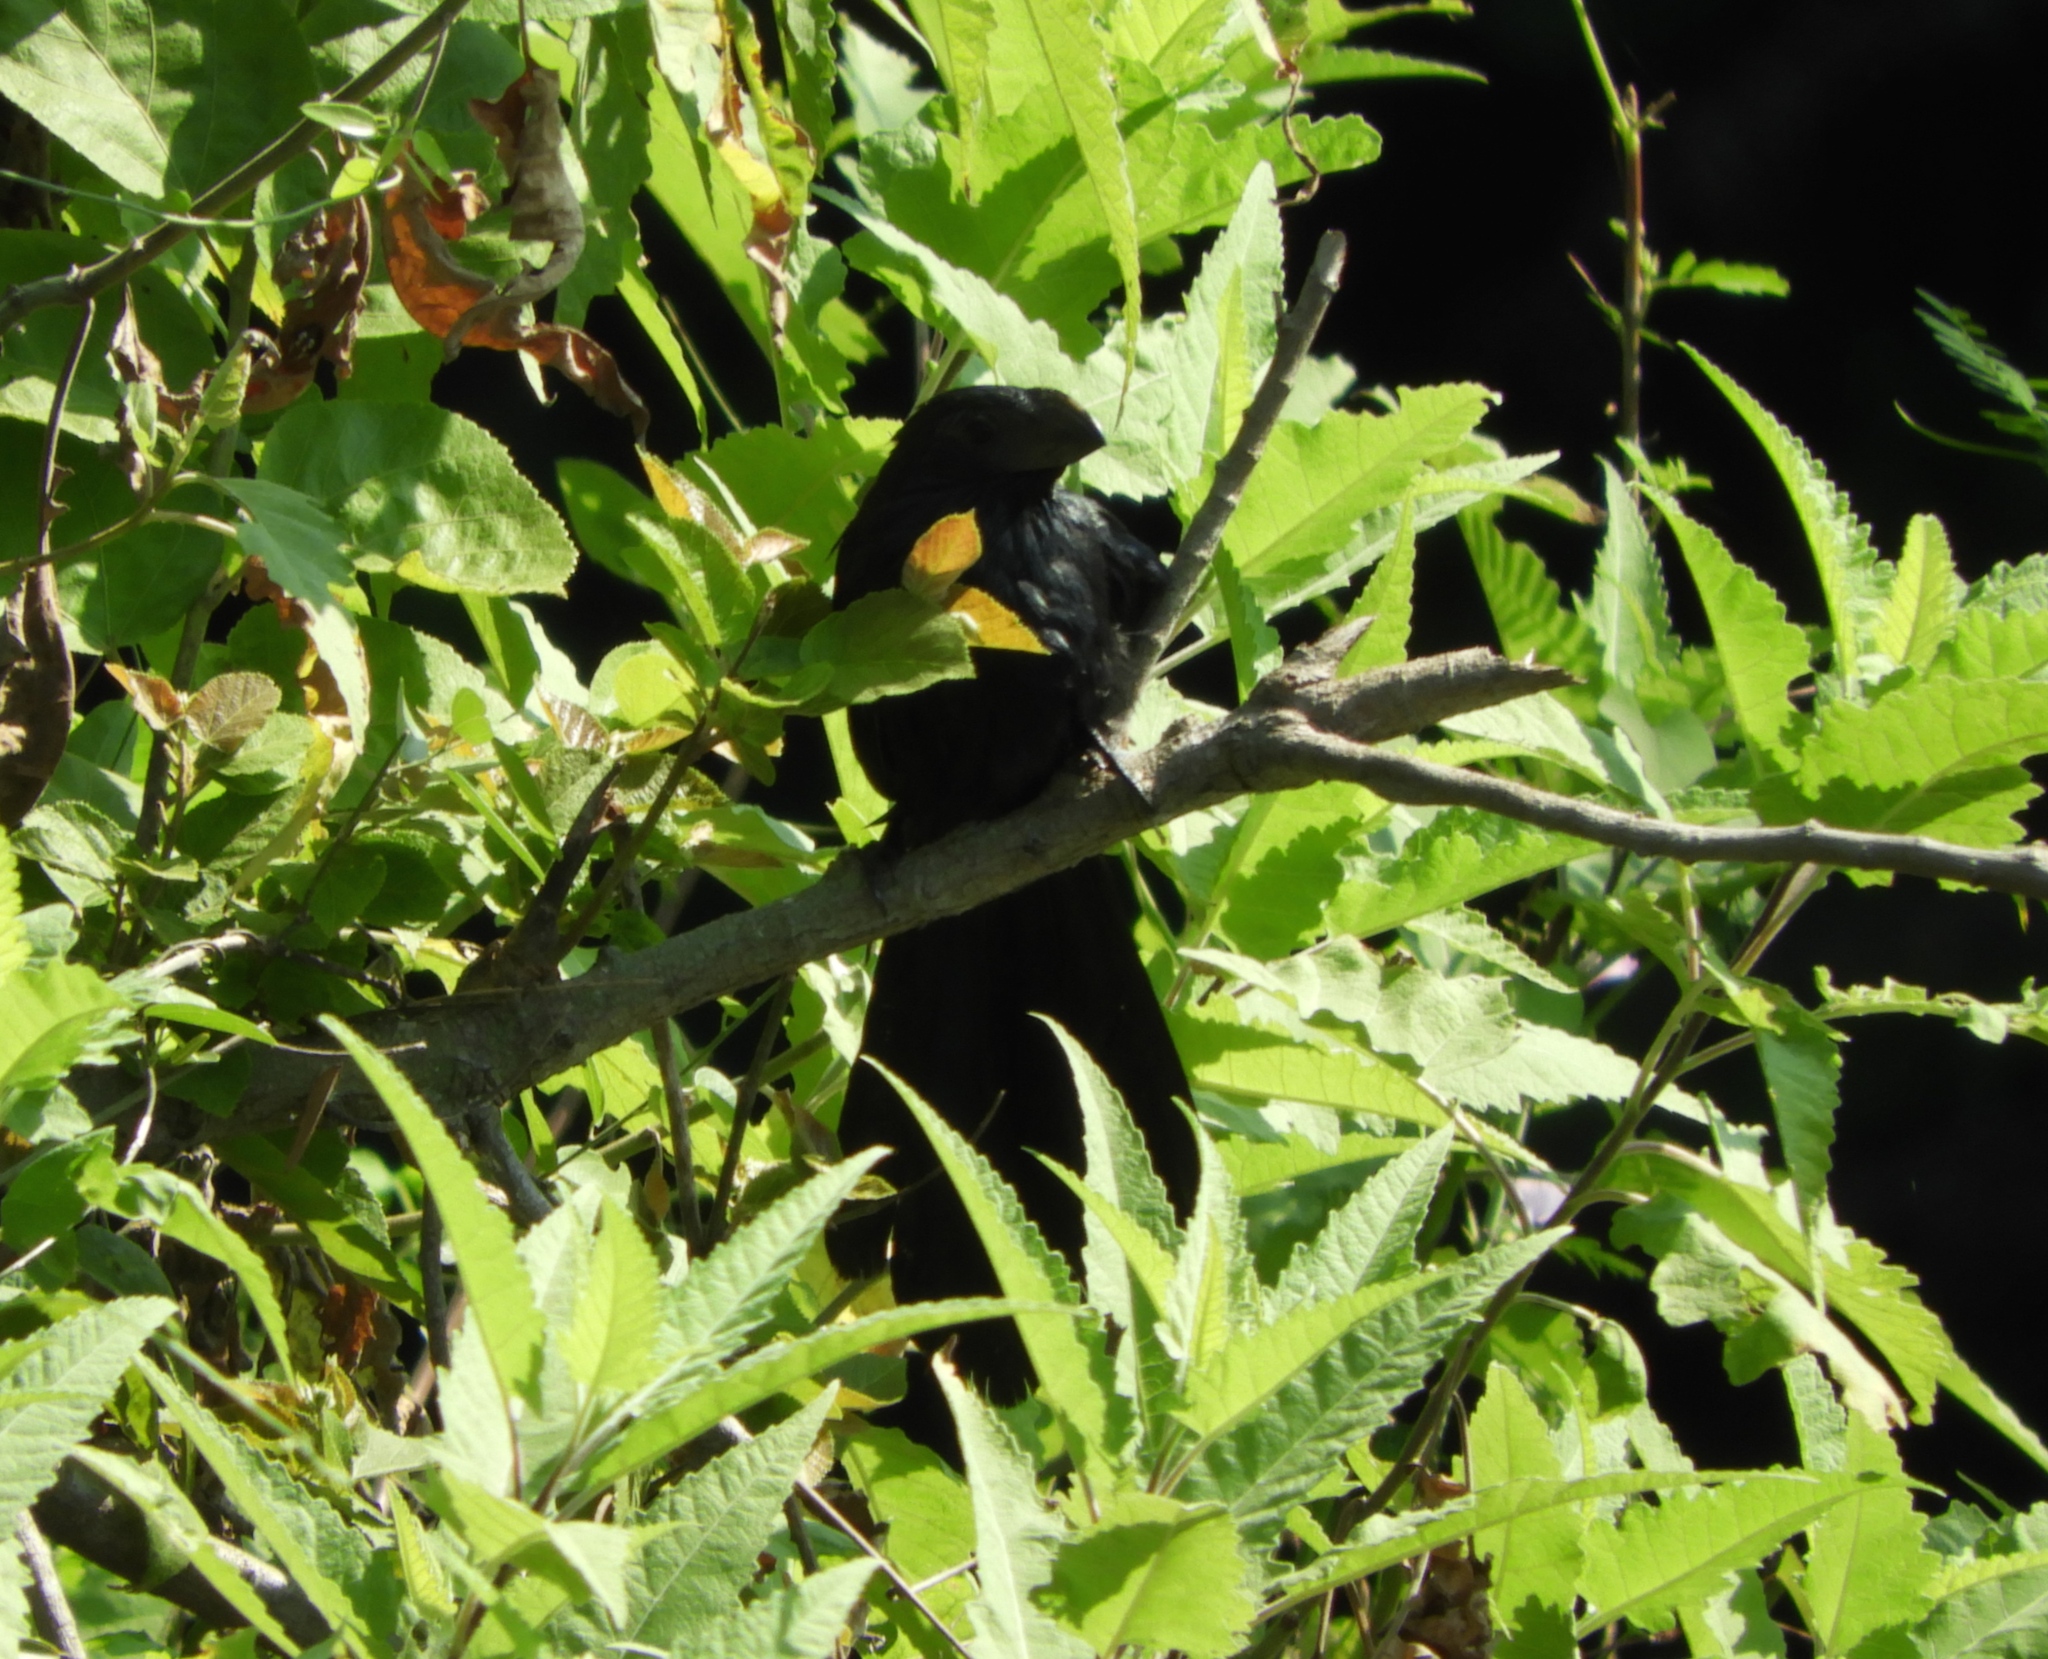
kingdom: Animalia
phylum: Chordata
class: Aves
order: Cuculiformes
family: Cuculidae
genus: Crotophaga
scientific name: Crotophaga sulcirostris
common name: Groove-billed ani
